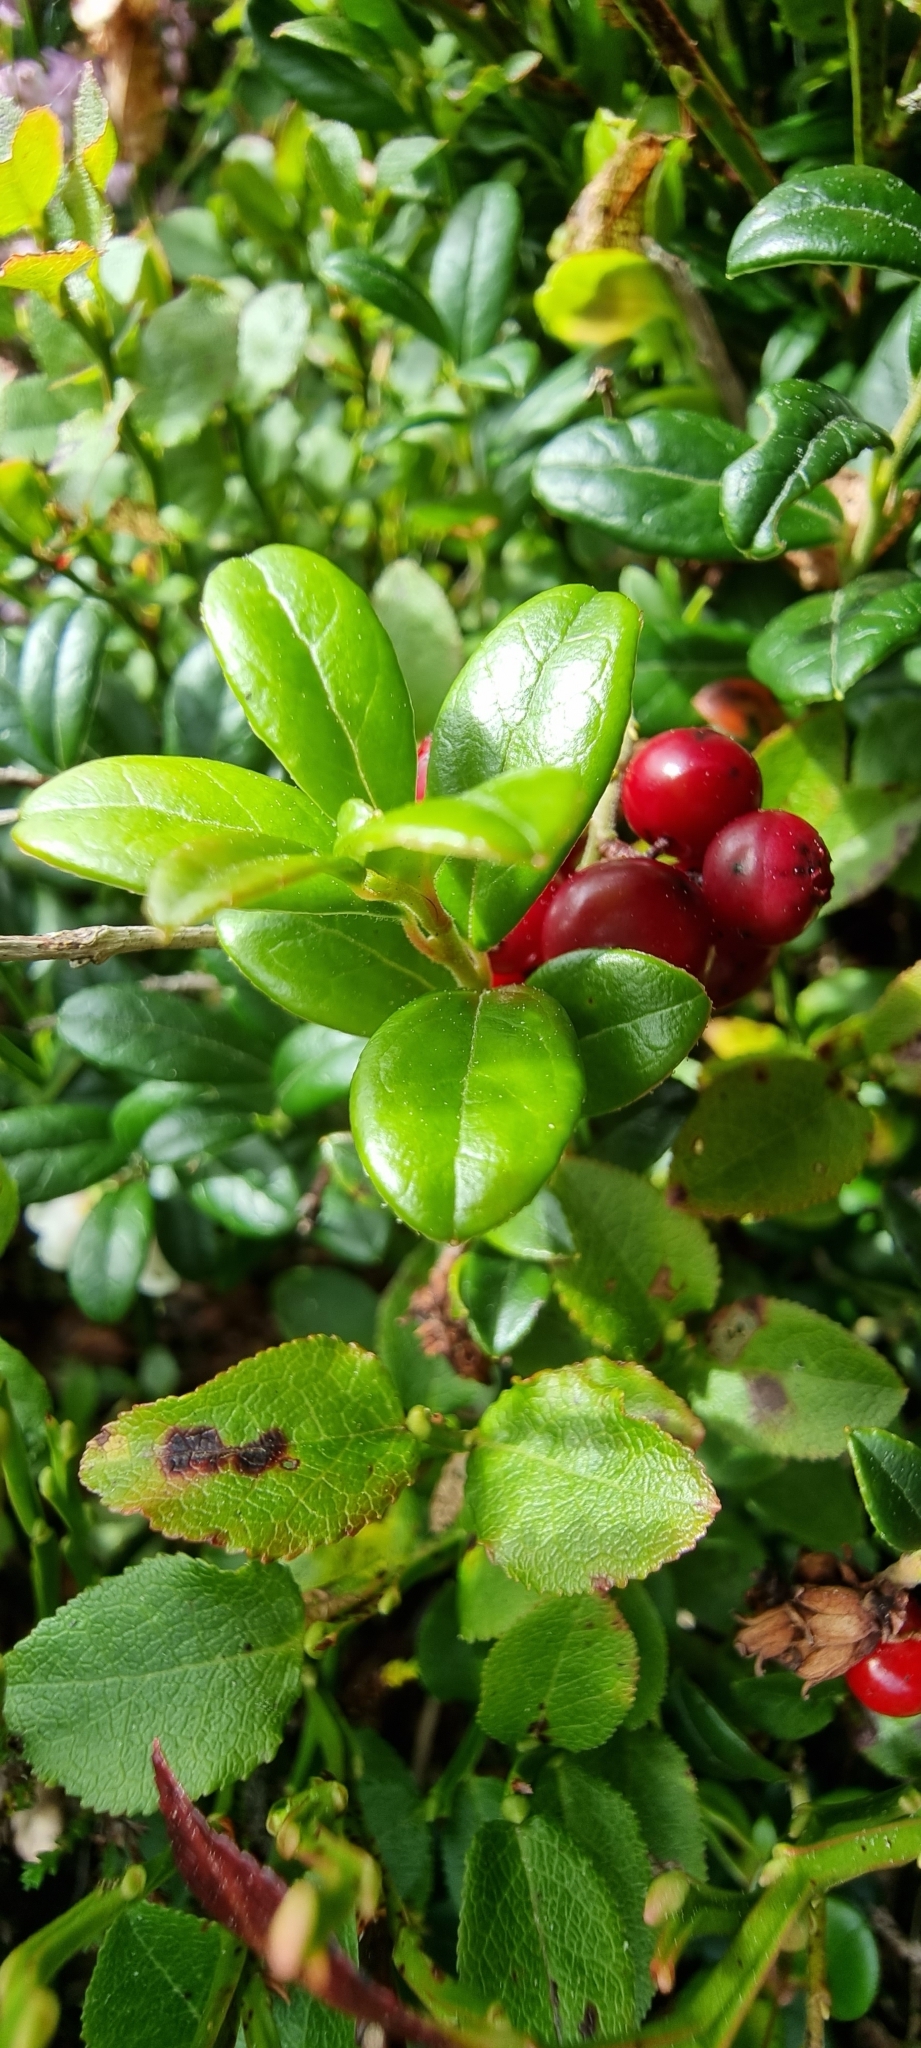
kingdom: Plantae
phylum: Tracheophyta
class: Magnoliopsida
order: Ericales
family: Ericaceae
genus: Vaccinium
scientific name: Vaccinium vitis-idaea
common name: Cowberry
